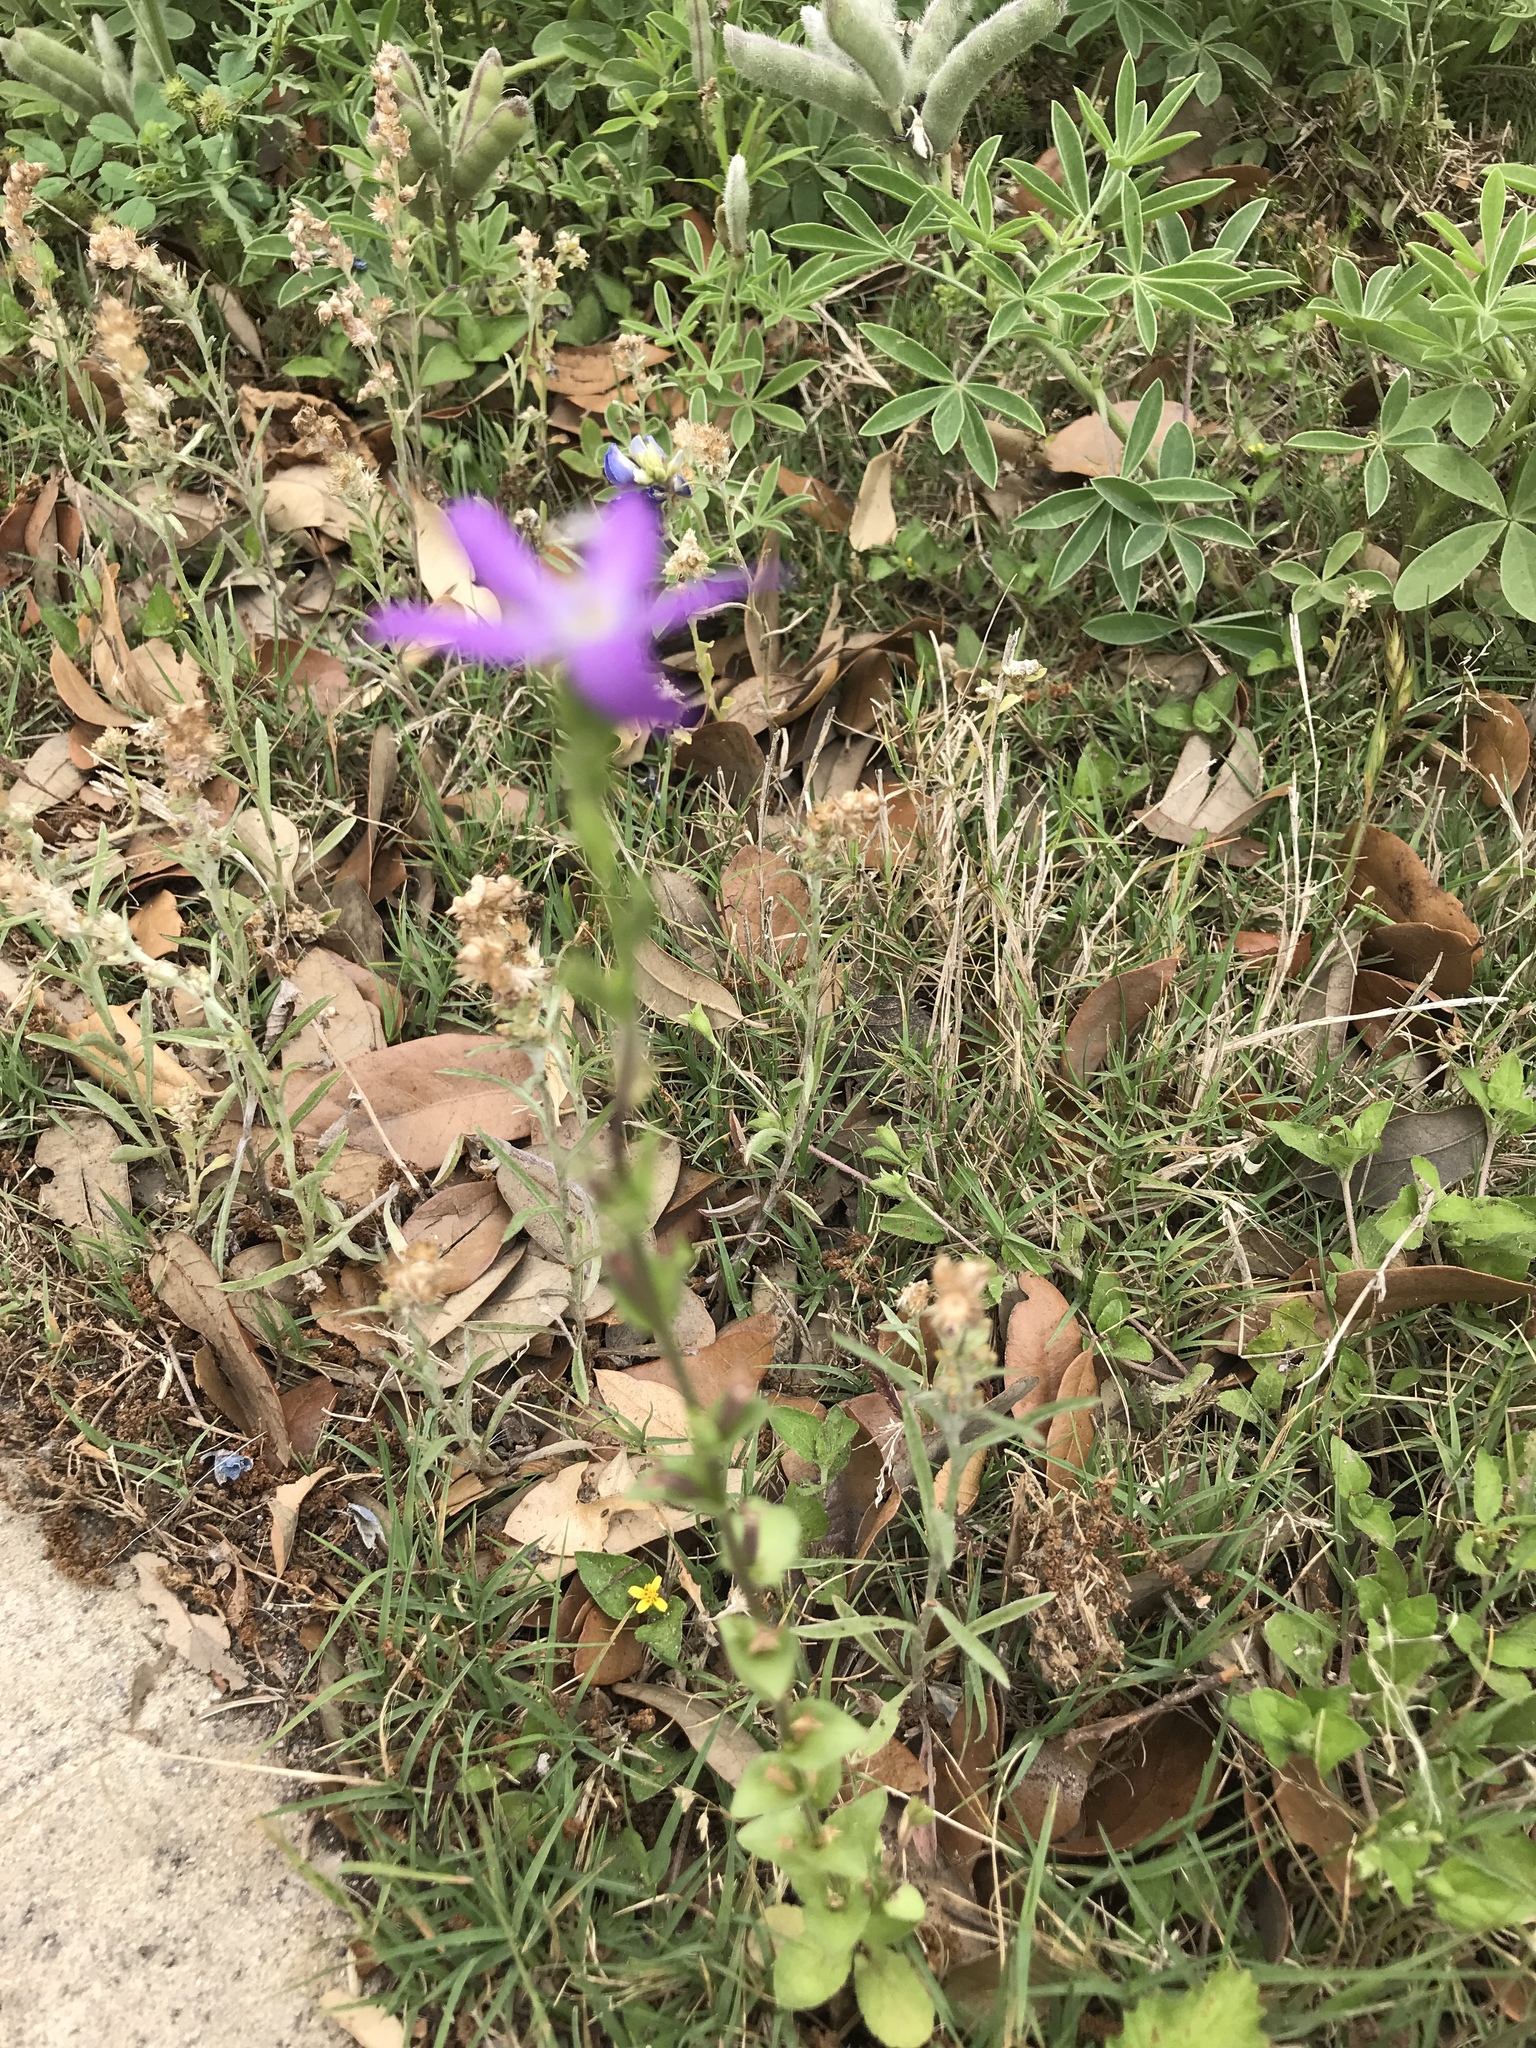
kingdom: Plantae
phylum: Tracheophyta
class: Magnoliopsida
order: Asterales
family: Campanulaceae
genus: Triodanis
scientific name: Triodanis perfoliata
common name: Clasping venus' looking-glass
